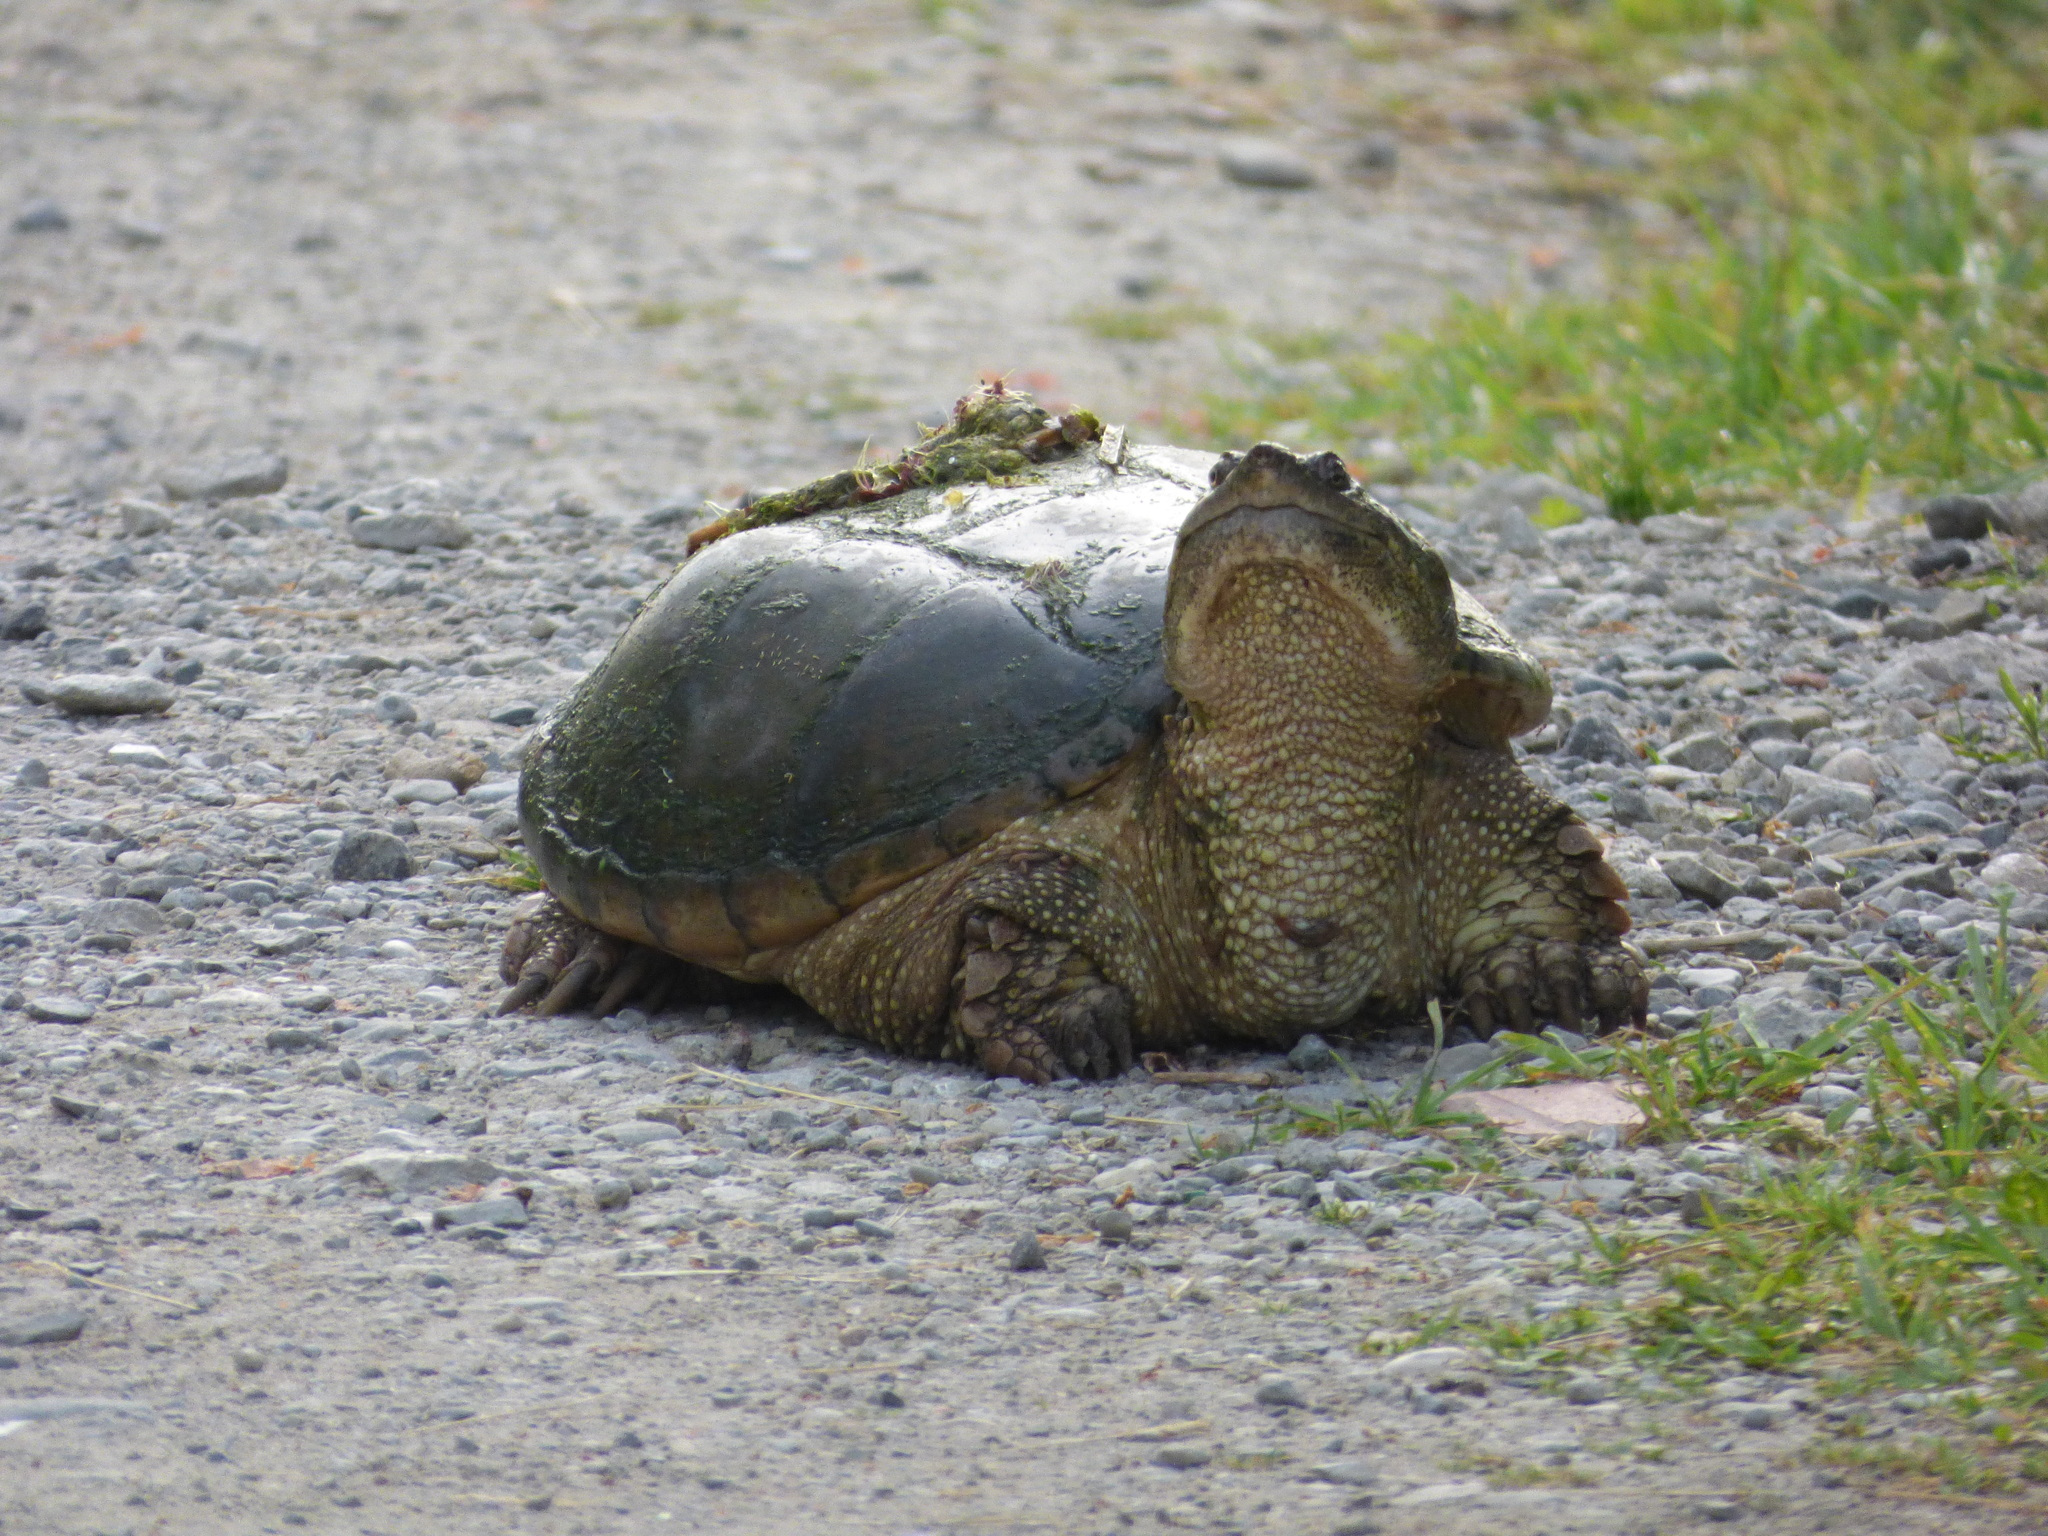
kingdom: Animalia
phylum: Chordata
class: Testudines
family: Chelydridae
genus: Chelydra
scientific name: Chelydra serpentina
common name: Common snapping turtle
